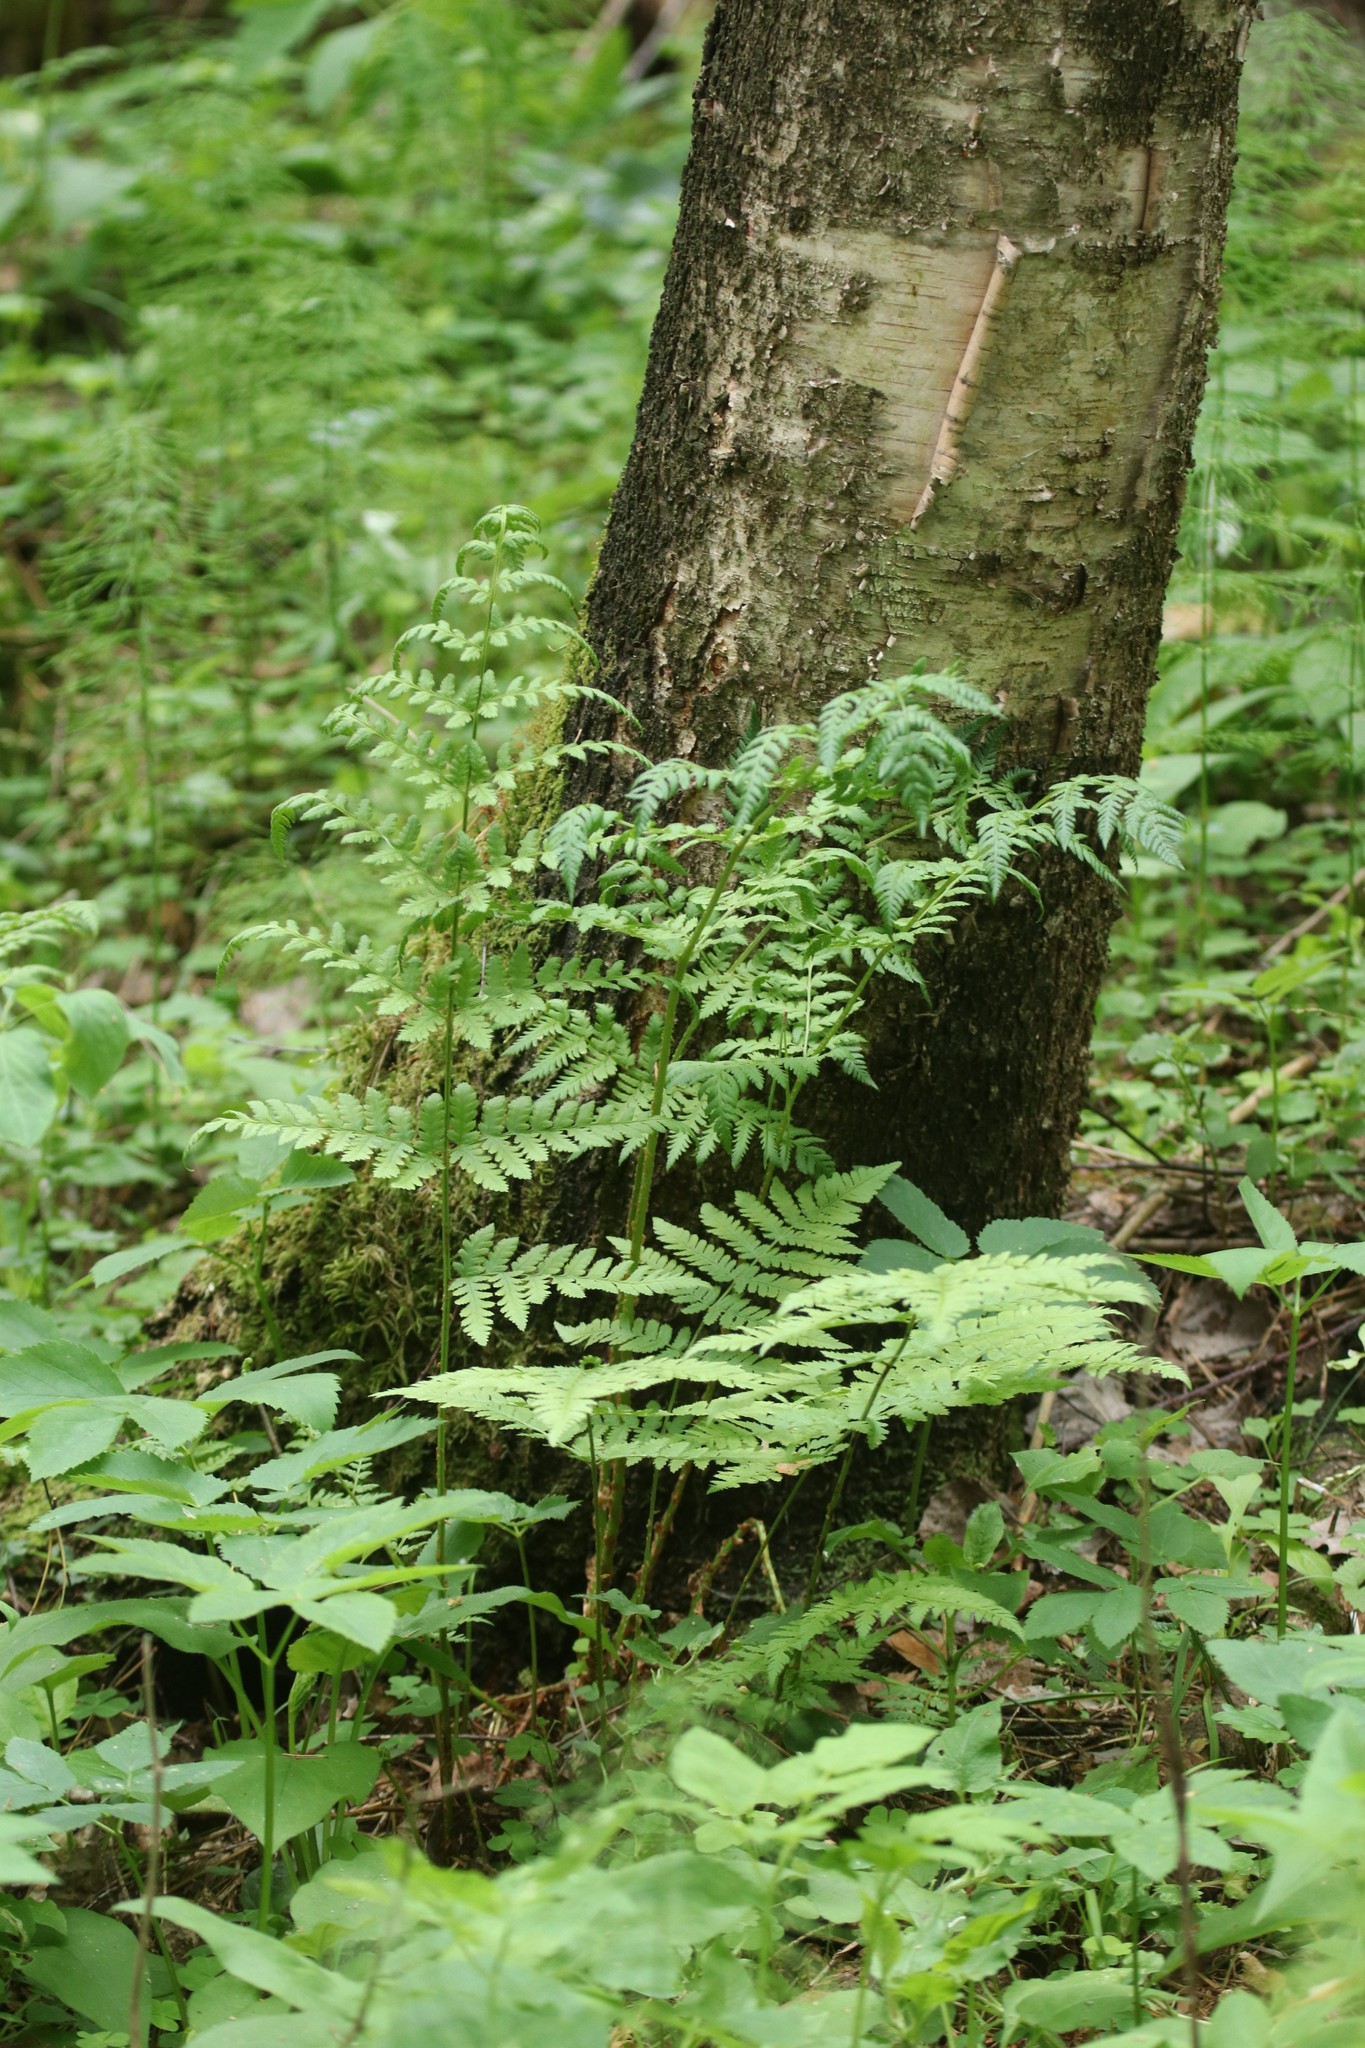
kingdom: Plantae
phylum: Tracheophyta
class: Polypodiopsida
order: Polypodiales
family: Dryopteridaceae
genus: Dryopteris
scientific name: Dryopteris carthusiana
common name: Narrow buckler-fern
